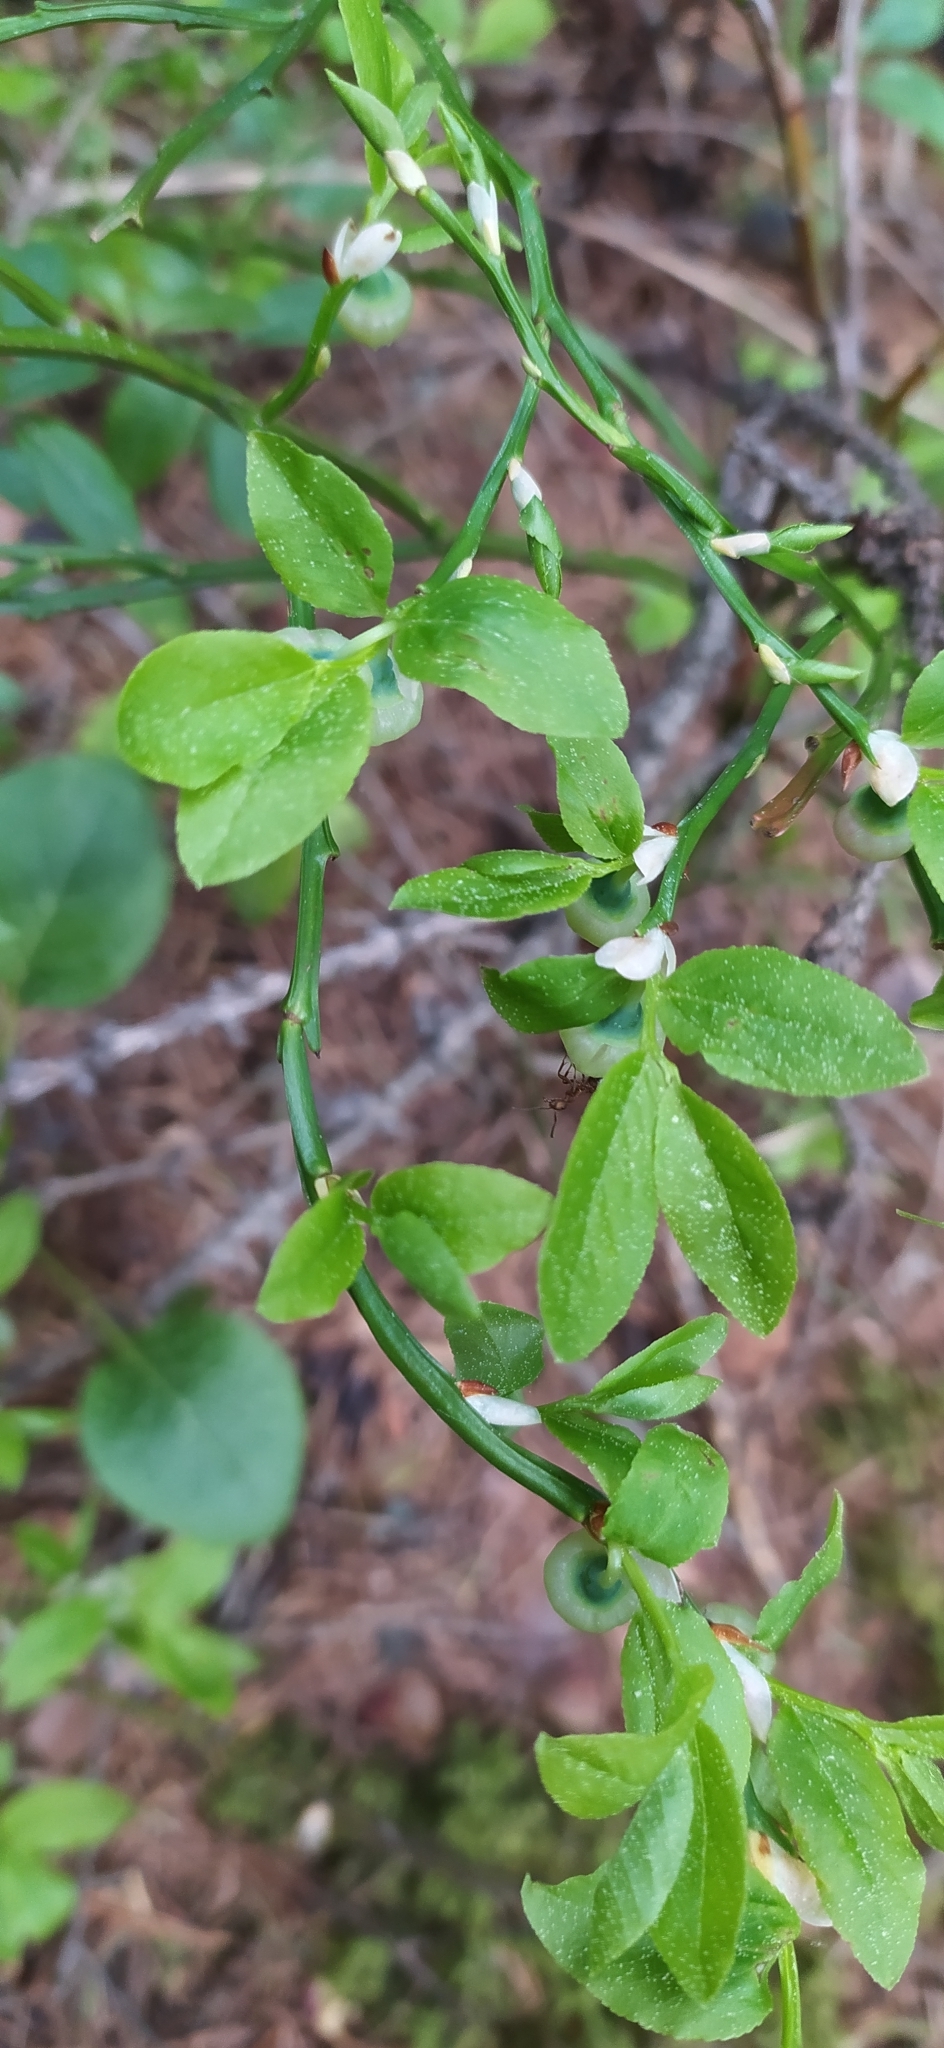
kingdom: Plantae
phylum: Tracheophyta
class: Magnoliopsida
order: Ericales
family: Ericaceae
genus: Vaccinium
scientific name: Vaccinium myrtillus
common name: Bilberry
